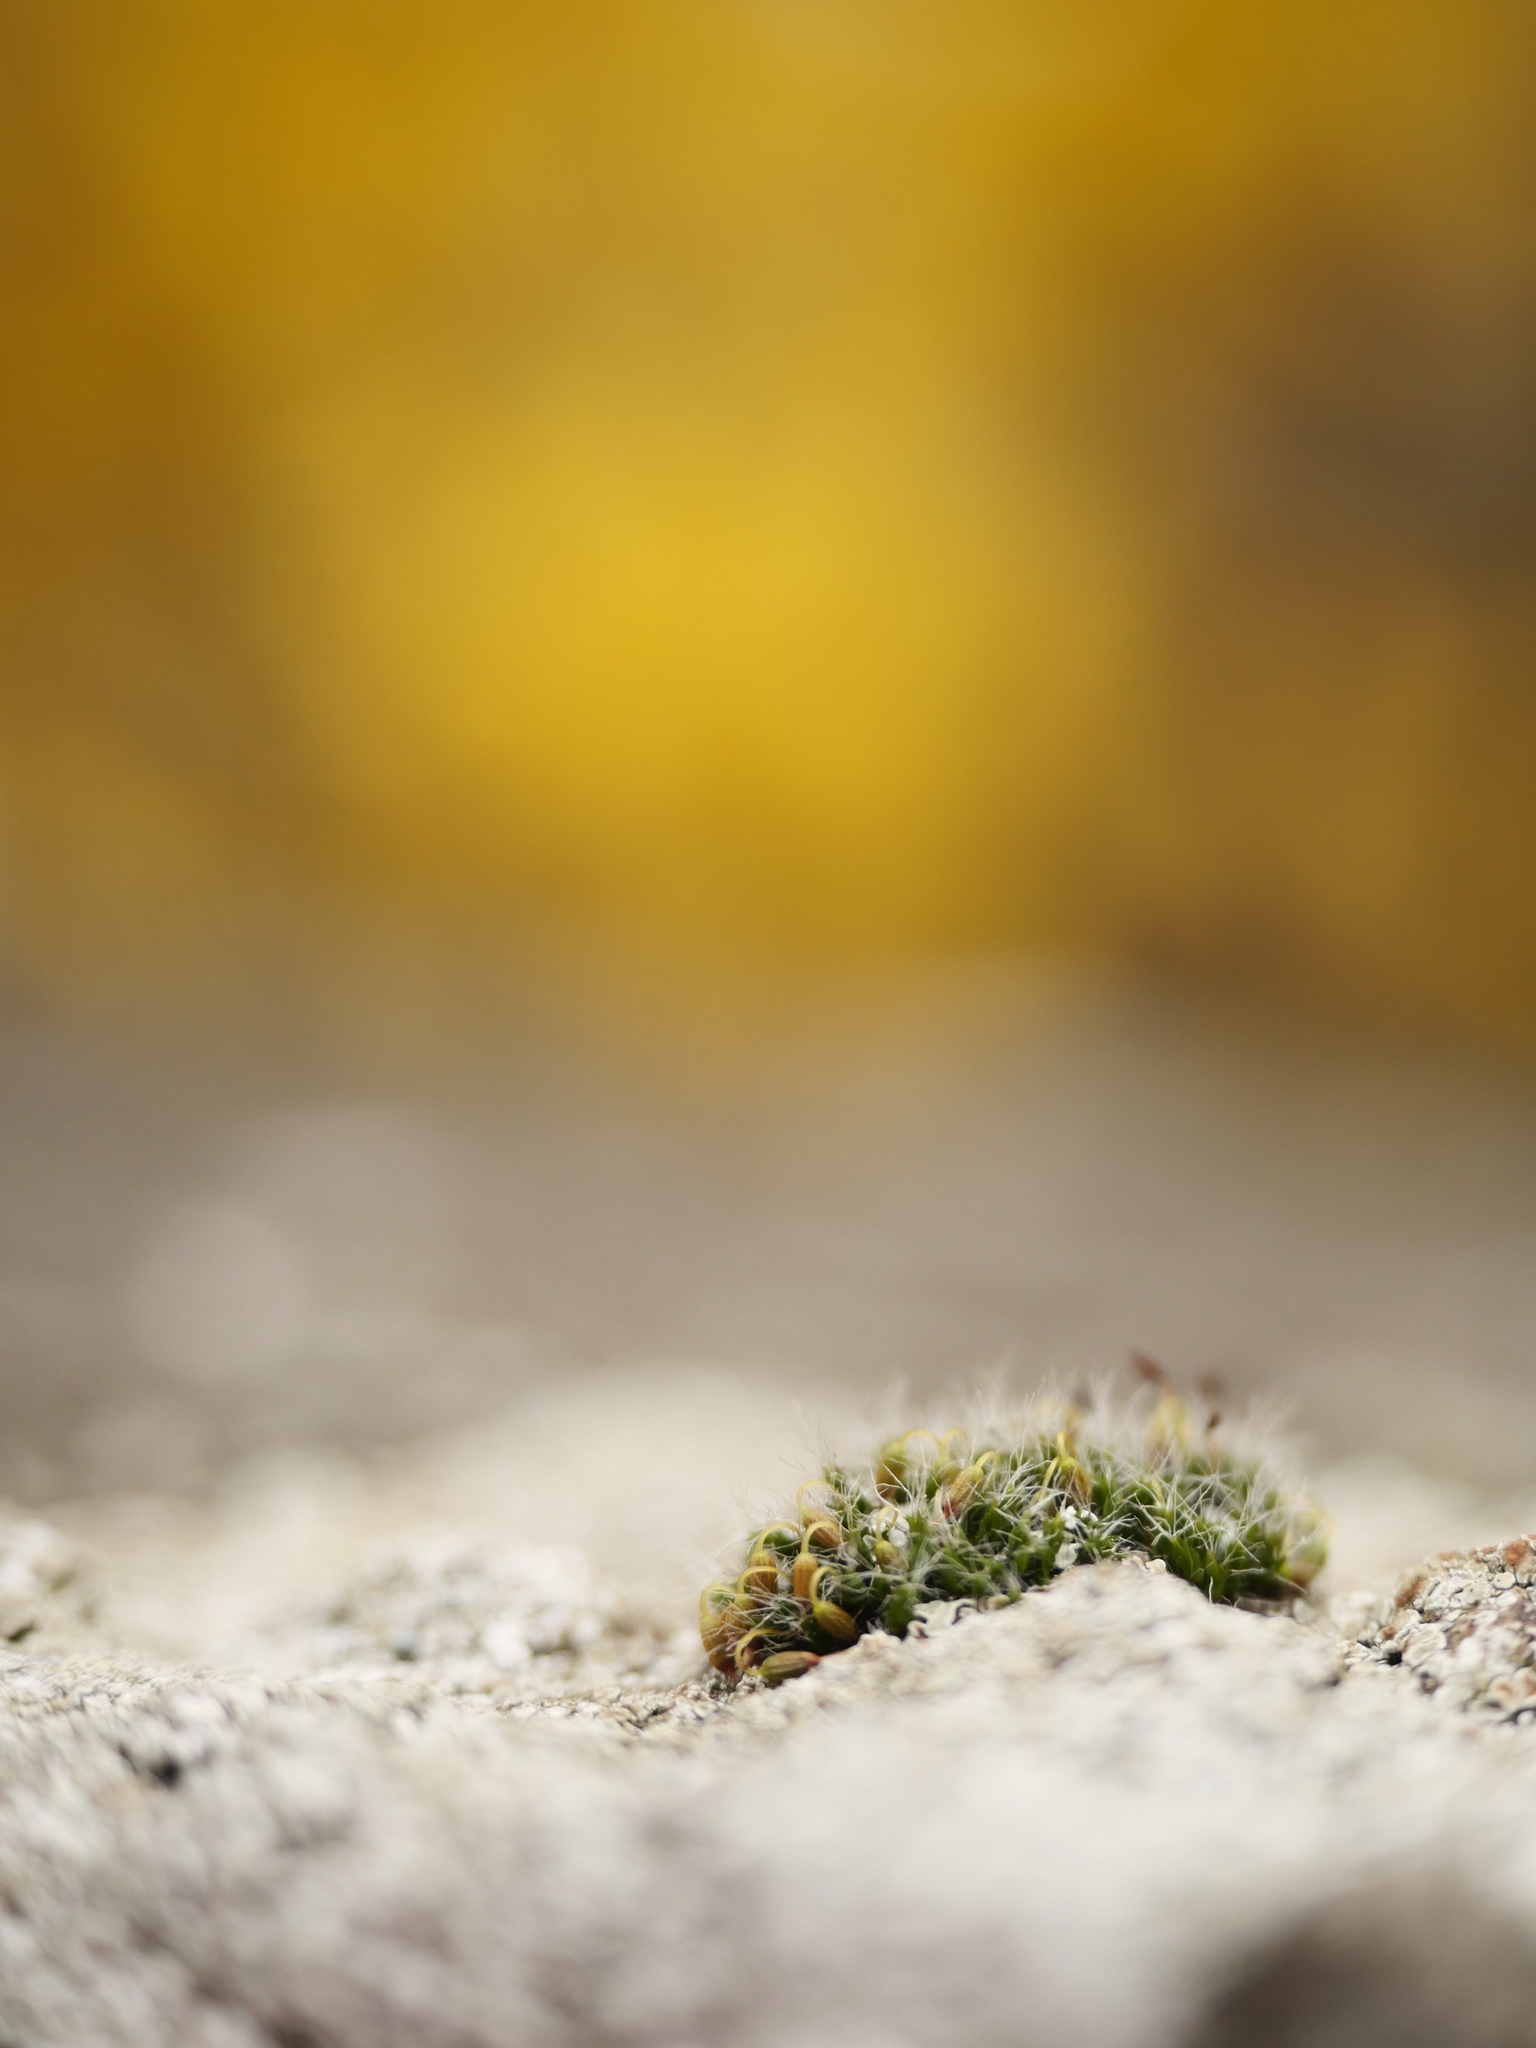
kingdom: Plantae
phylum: Bryophyta
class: Bryopsida
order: Grimmiales
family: Grimmiaceae
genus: Grimmia
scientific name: Grimmia pulvinata
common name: Grey-cushioned grimmia
